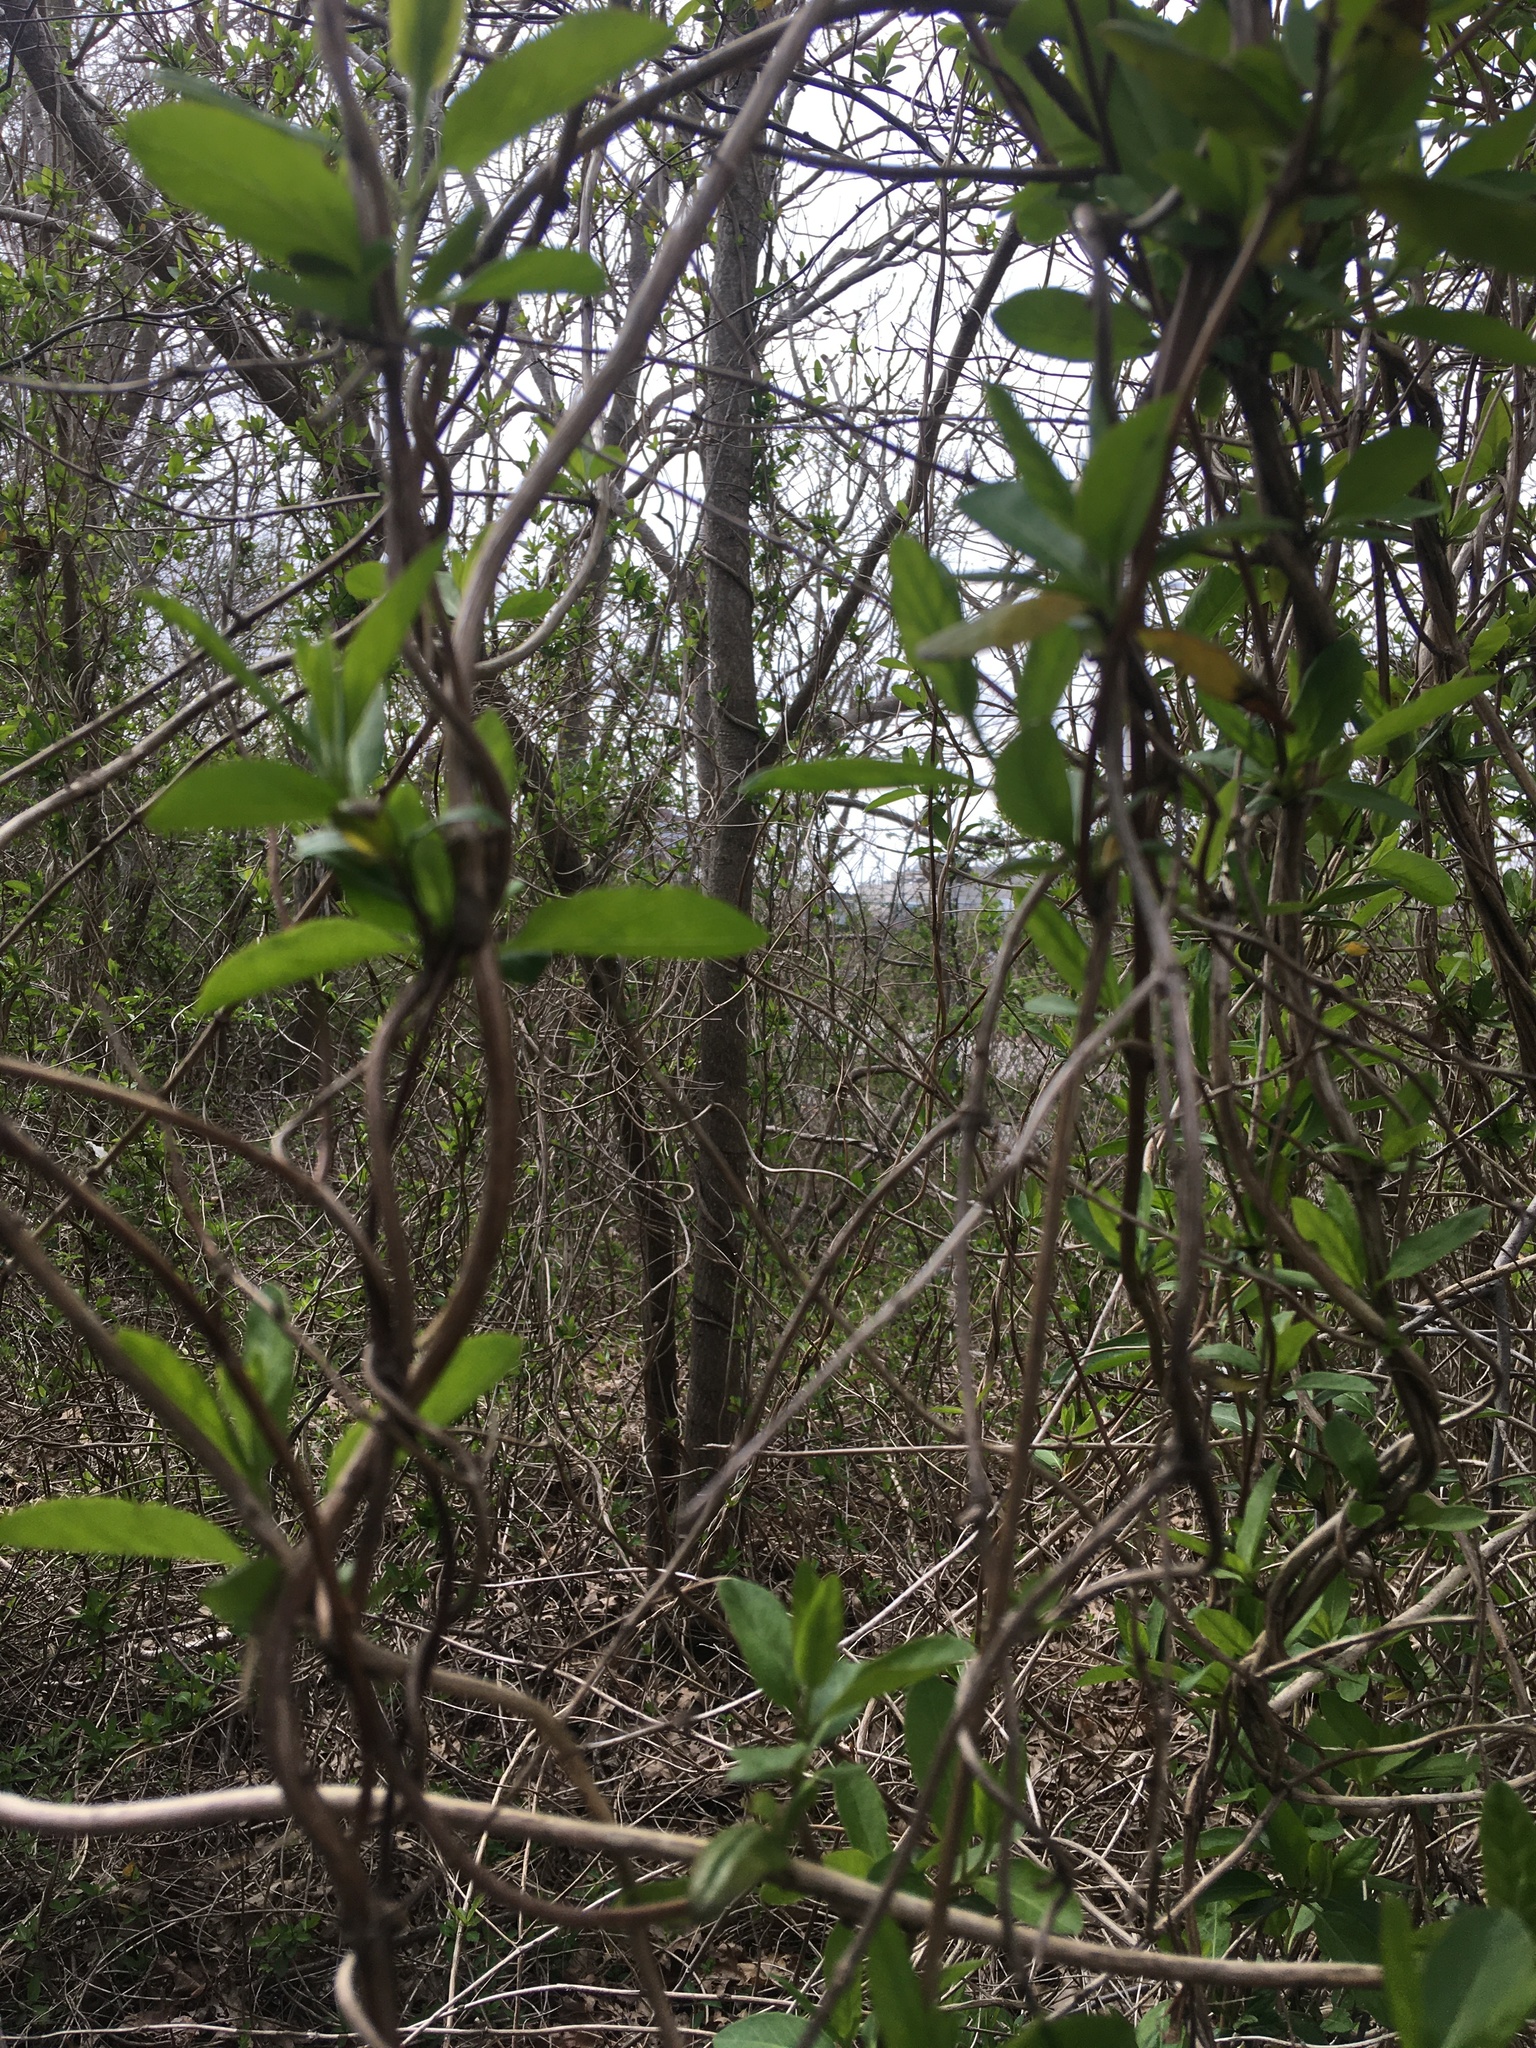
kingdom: Plantae
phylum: Tracheophyta
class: Magnoliopsida
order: Dipsacales
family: Caprifoliaceae
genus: Lonicera
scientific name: Lonicera japonica
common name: Japanese honeysuckle
